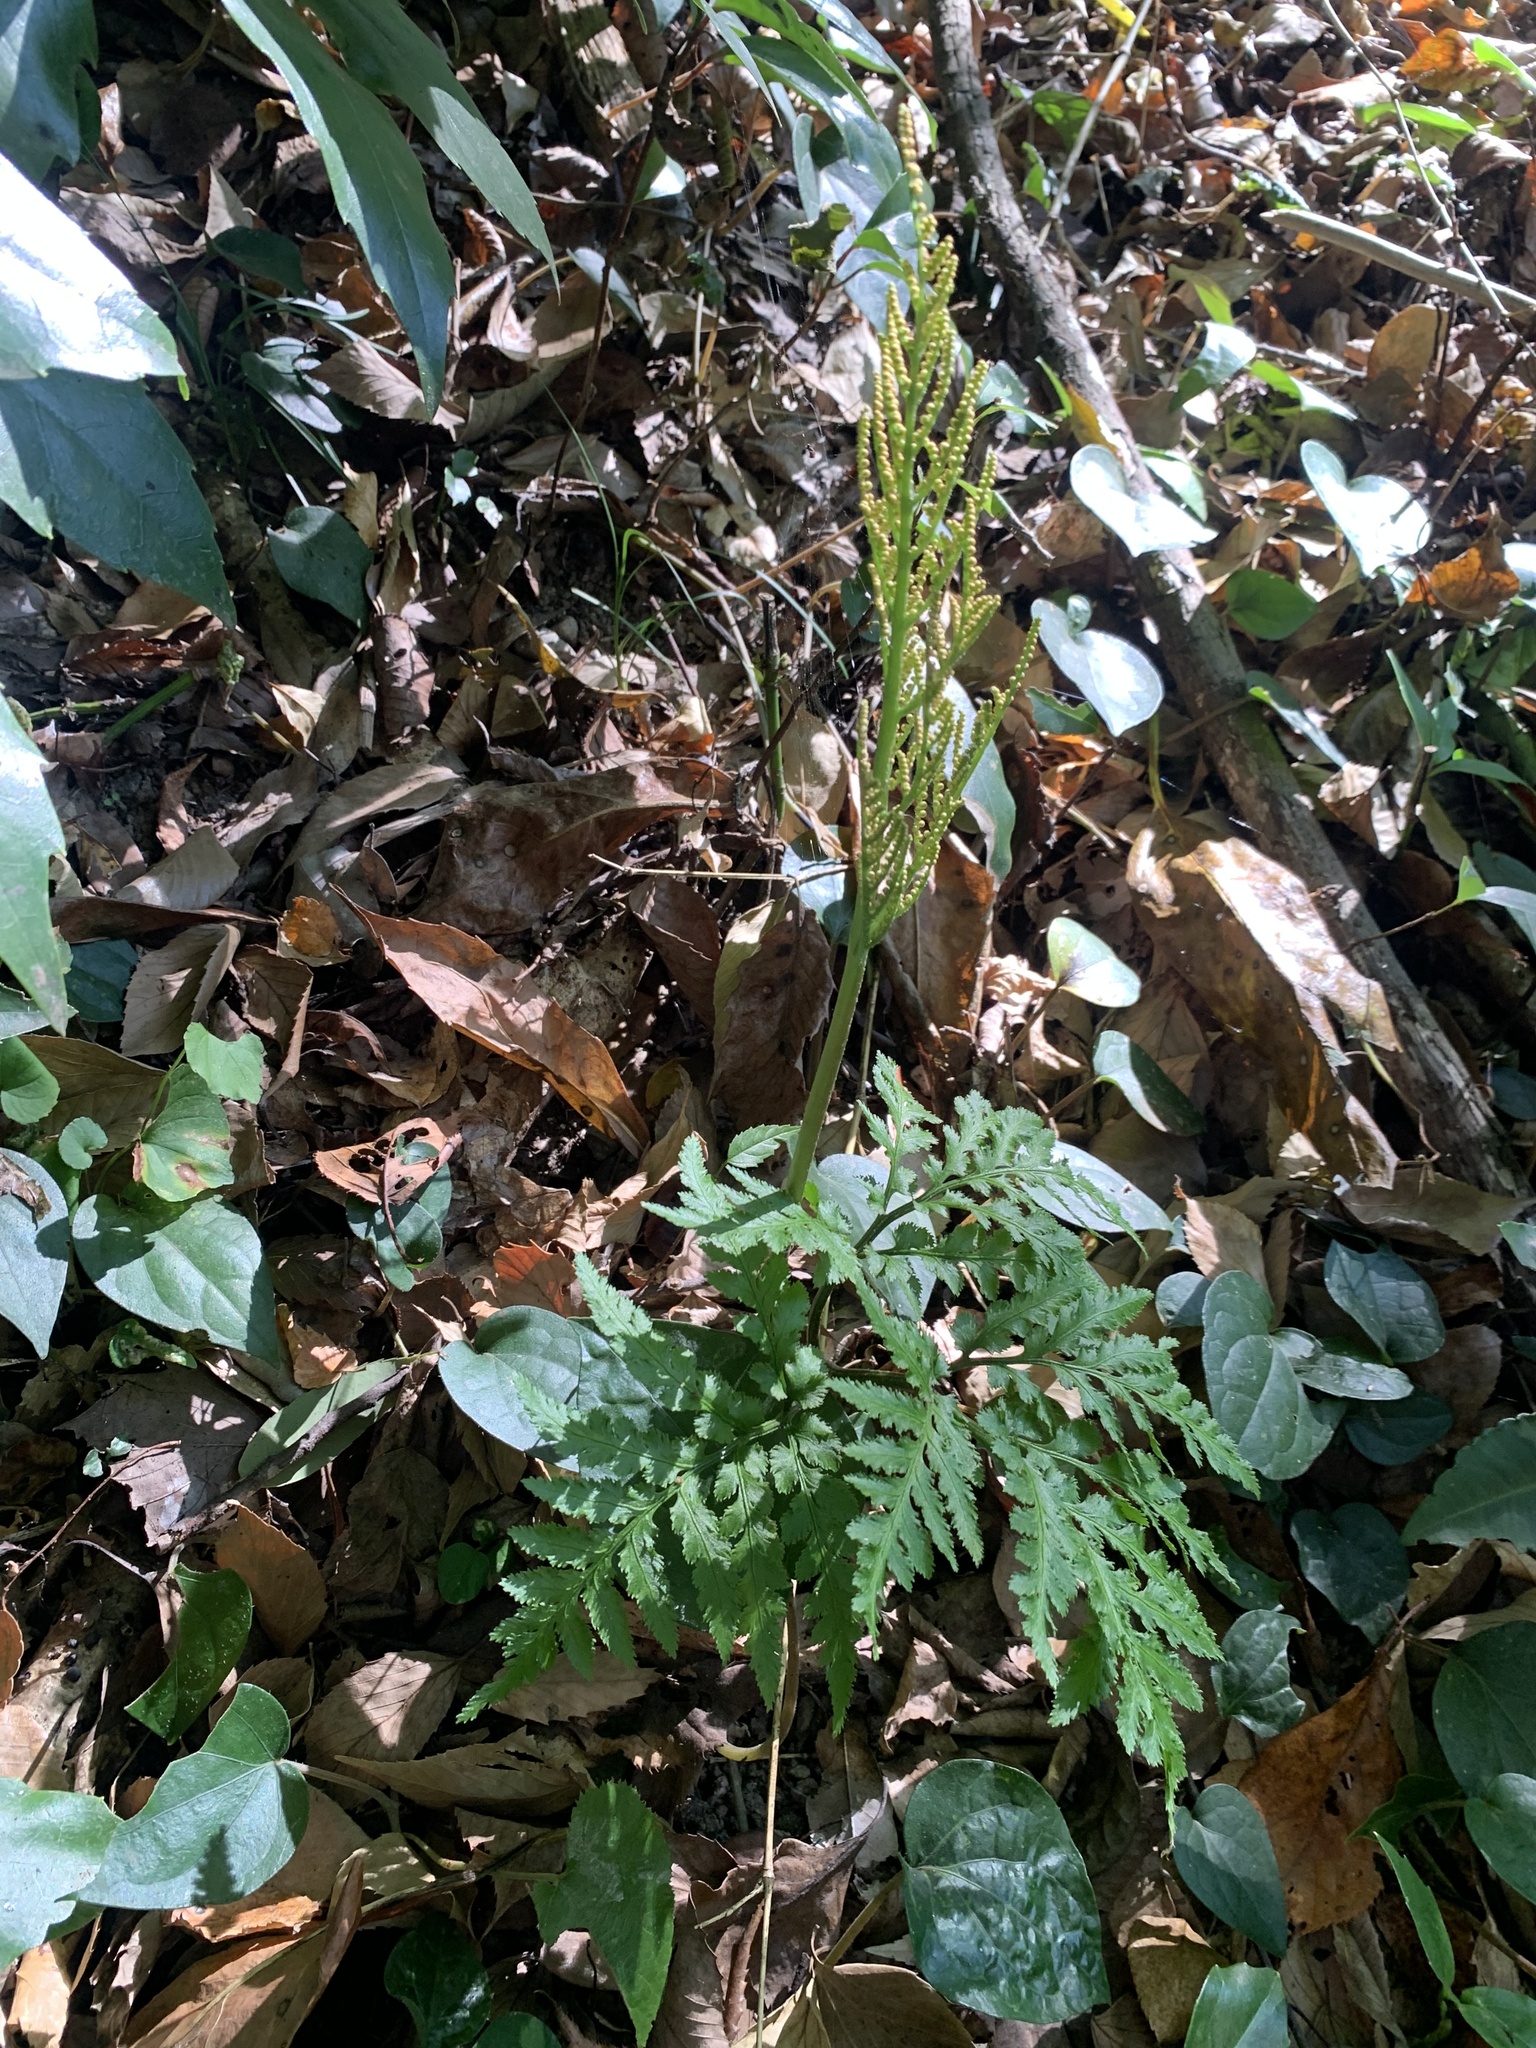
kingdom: Plantae
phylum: Tracheophyta
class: Polypodiopsida
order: Ophioglossales
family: Ophioglossaceae
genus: Sceptridium
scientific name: Sceptridium japonicum
